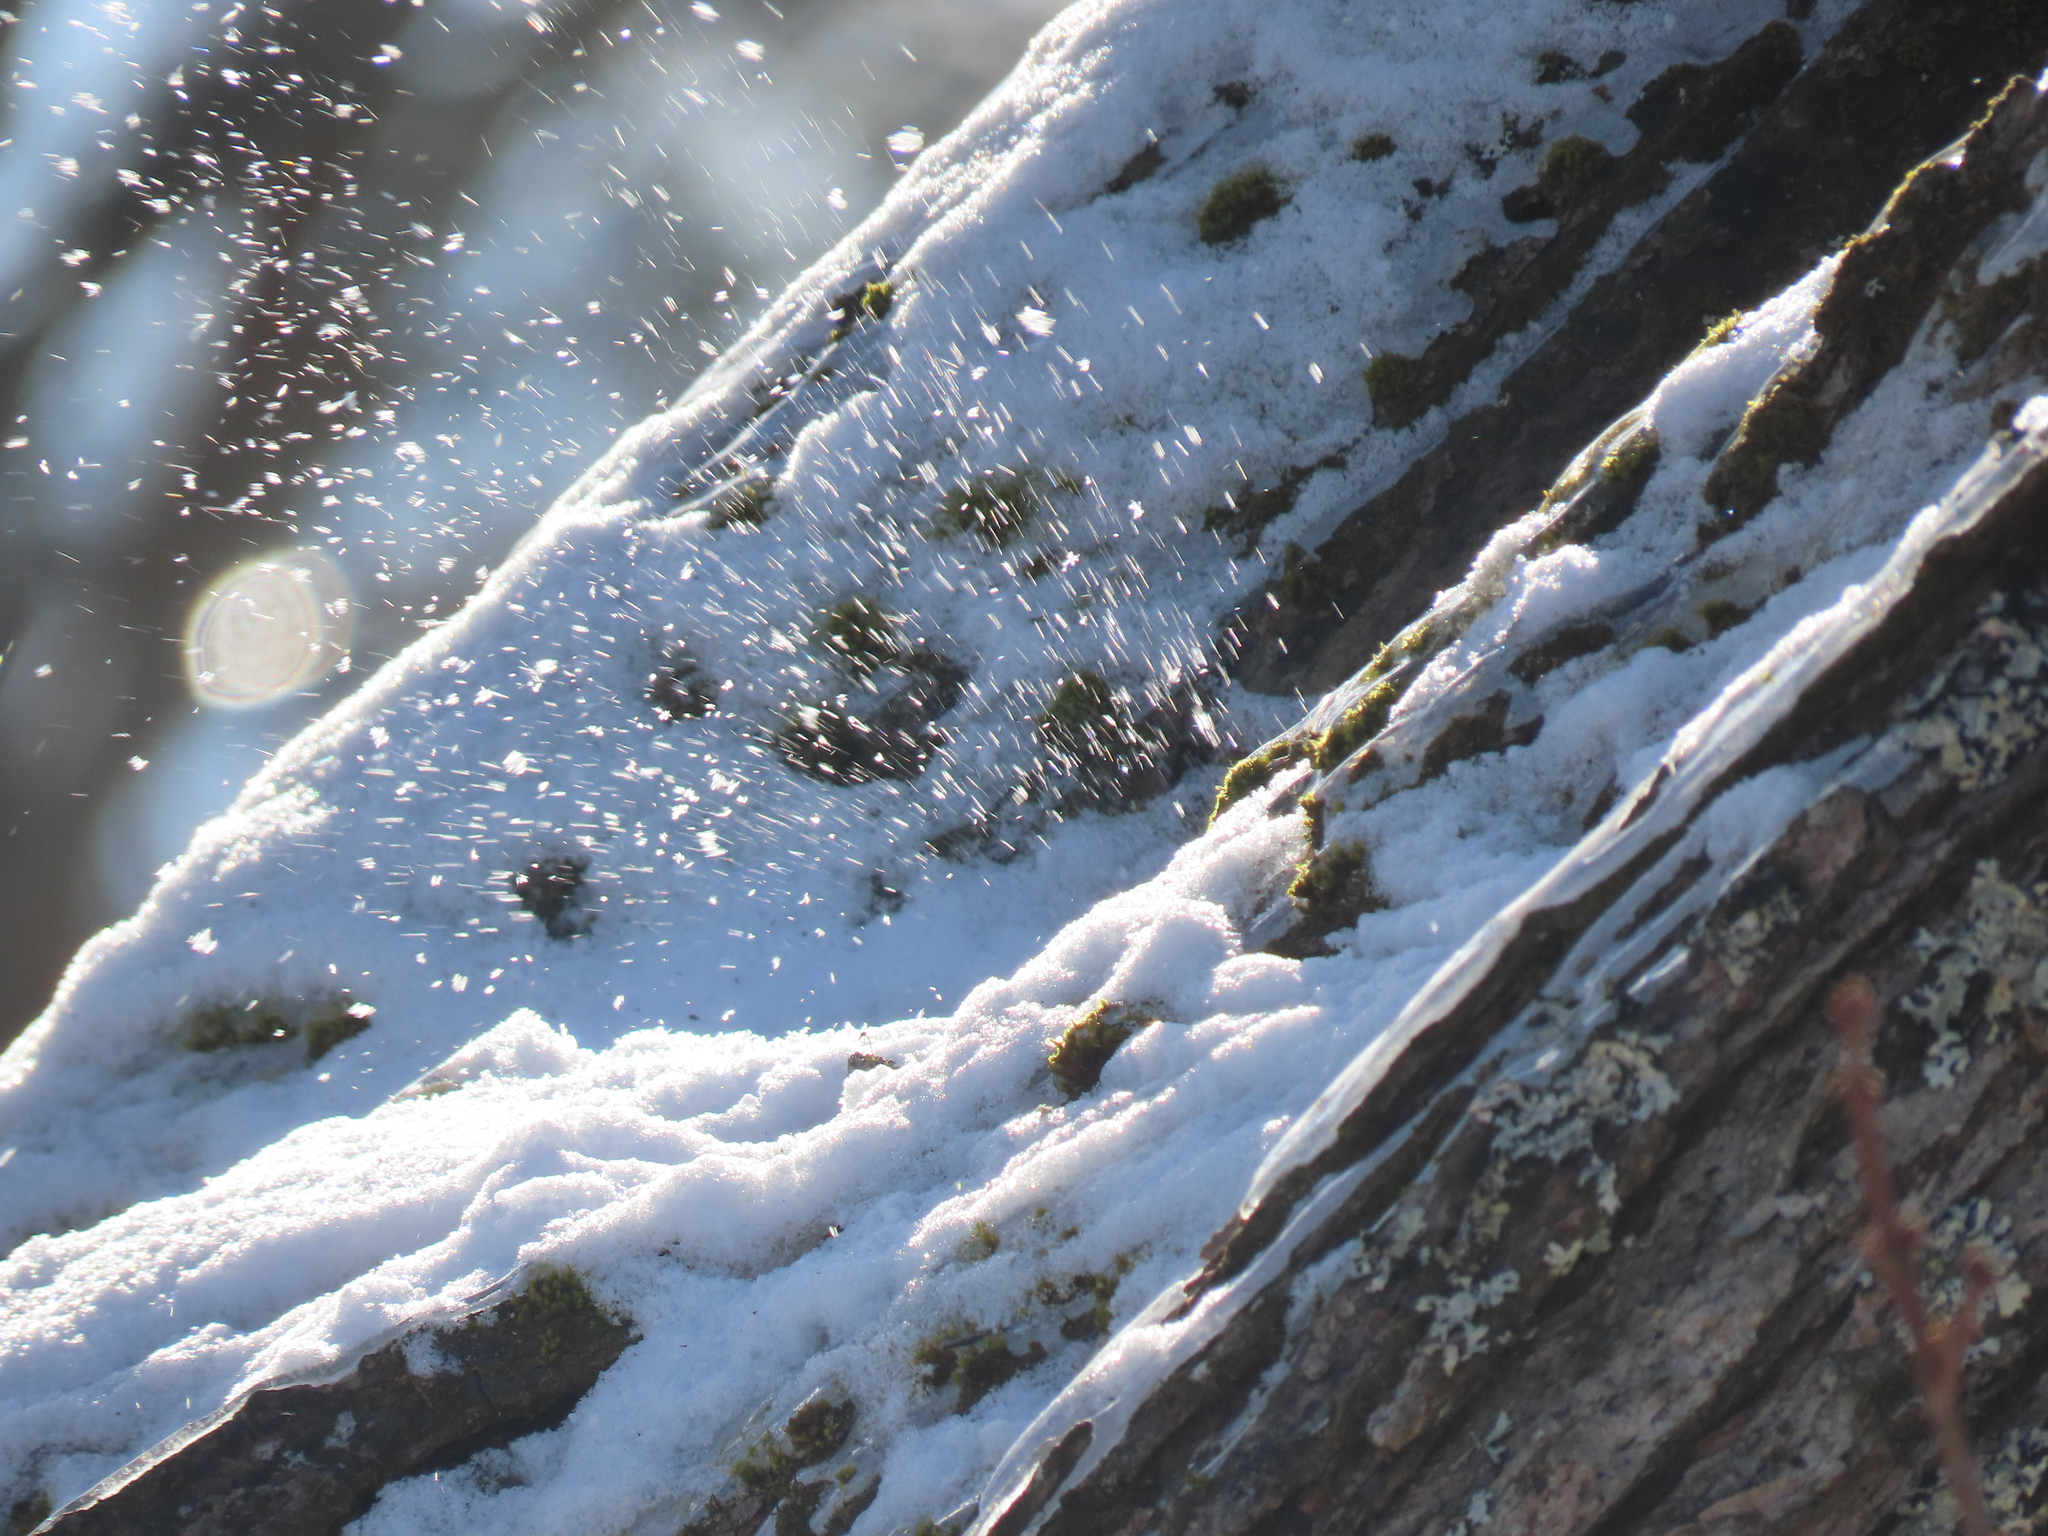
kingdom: Animalia
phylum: Chordata
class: Aves
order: Passeriformes
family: Icteridae
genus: Euphagus
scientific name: Euphagus carolinus
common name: Rusty blackbird
